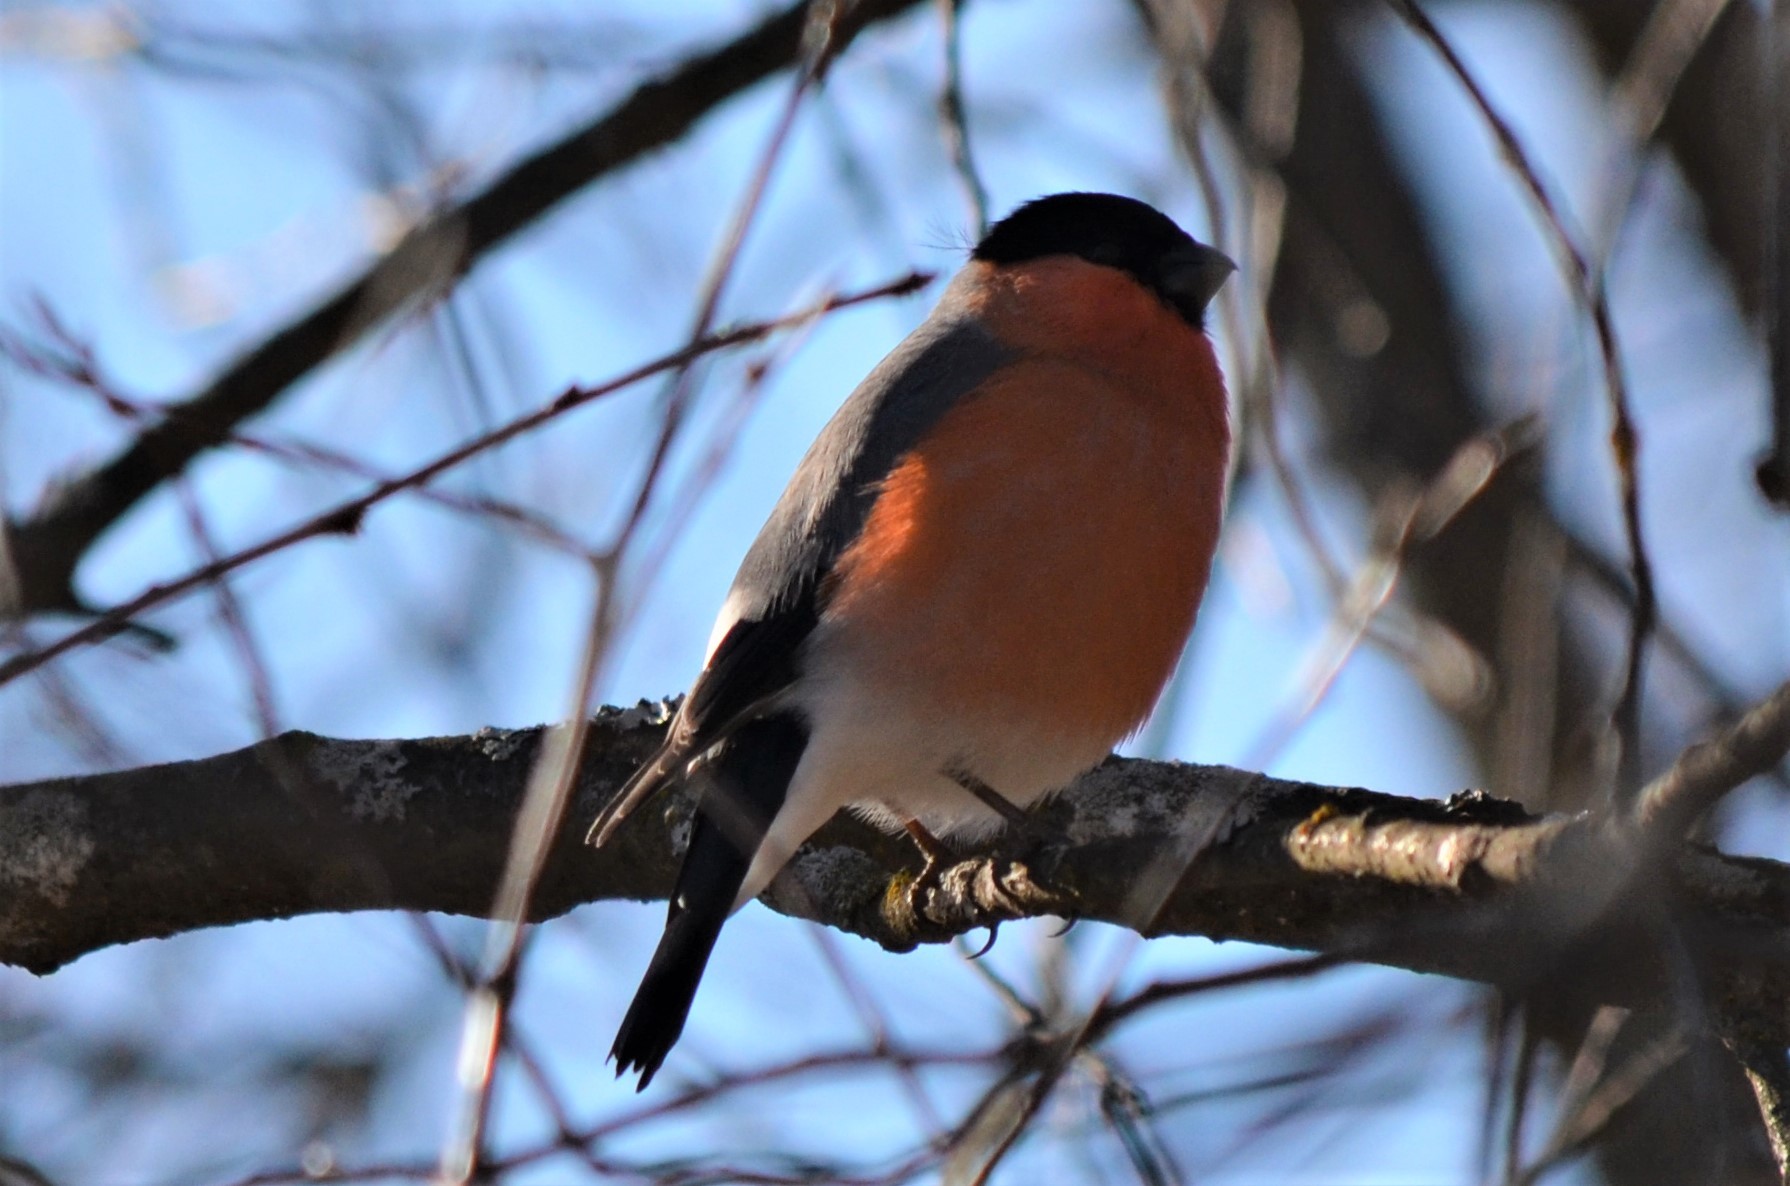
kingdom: Animalia
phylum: Chordata
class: Aves
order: Passeriformes
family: Fringillidae
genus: Pyrrhula
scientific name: Pyrrhula pyrrhula
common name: Eurasian bullfinch
